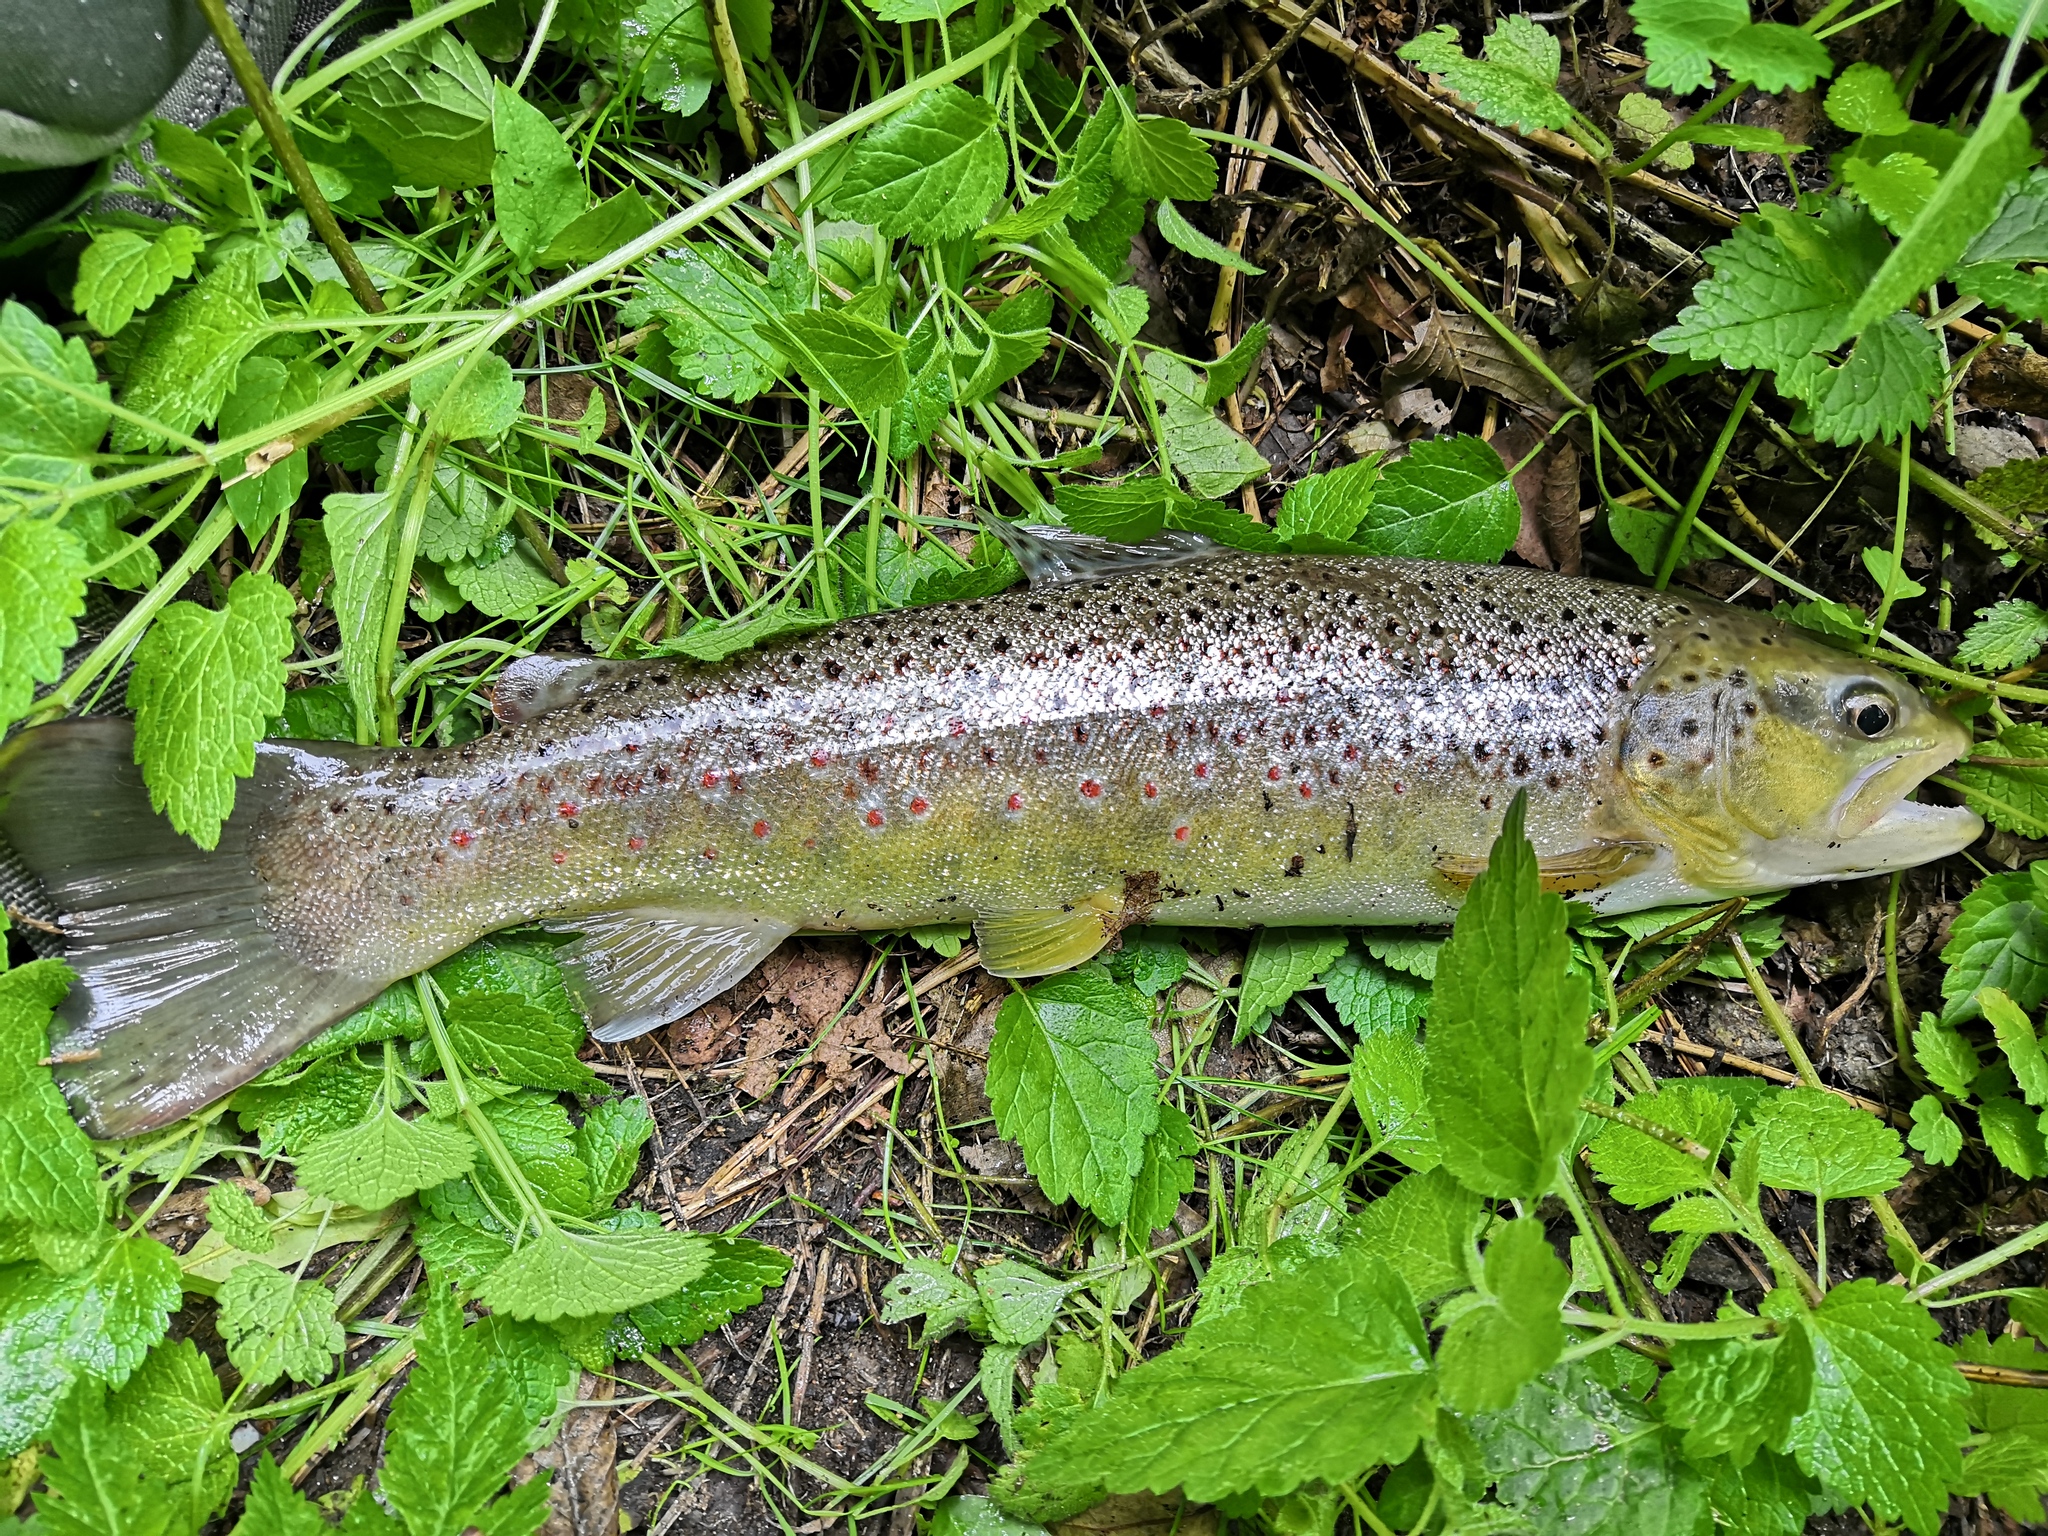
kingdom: Animalia
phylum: Chordata
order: Salmoniformes
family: Salmonidae
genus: Salmo
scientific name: Salmo trutta
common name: Brown trout
